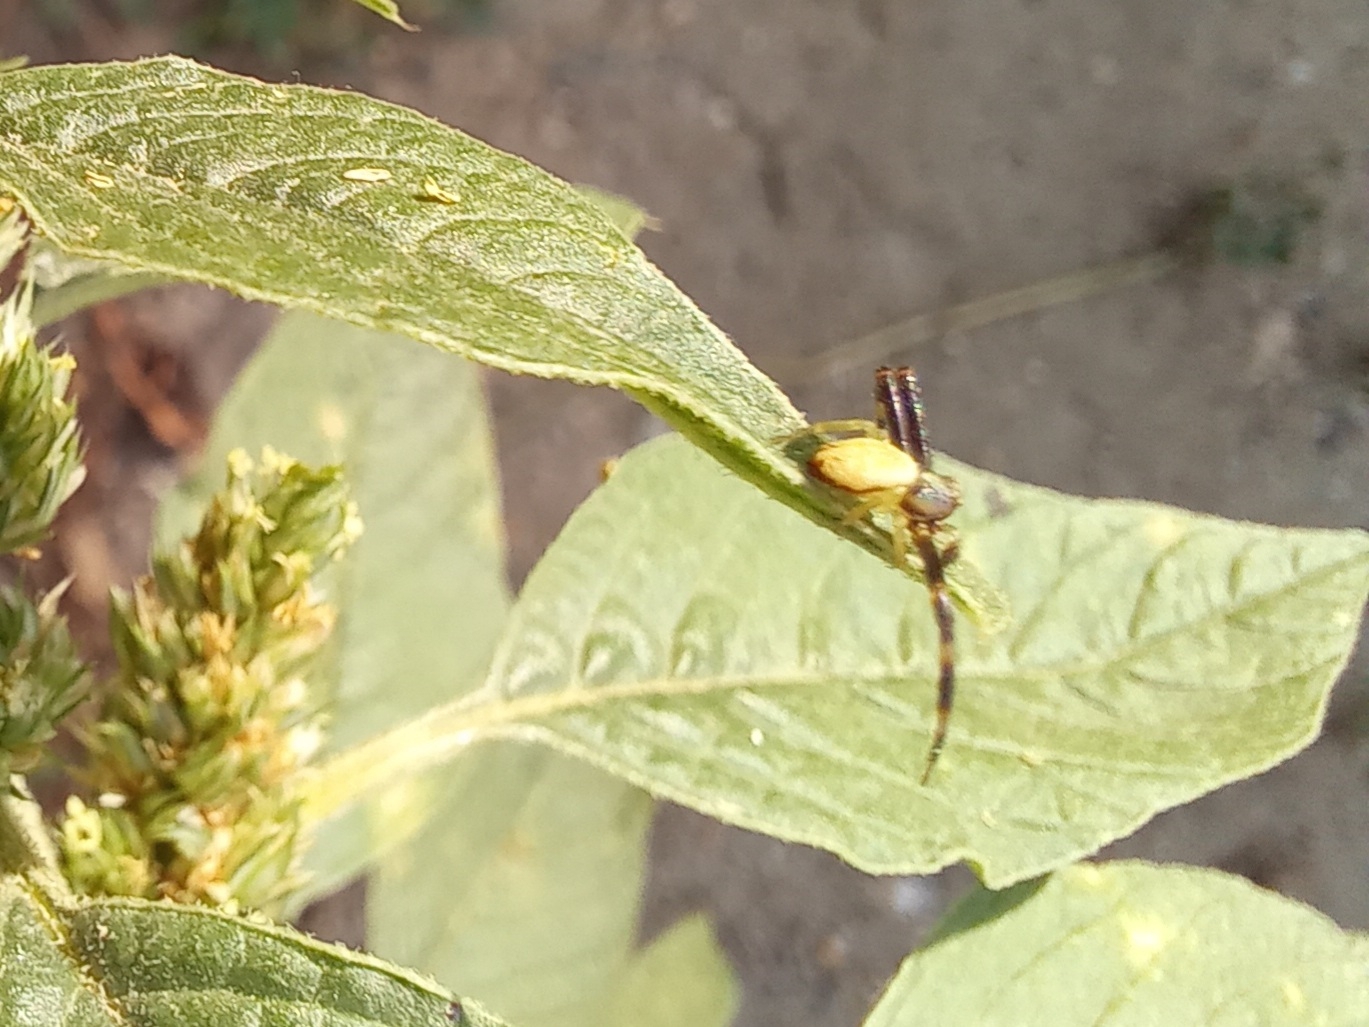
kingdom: Animalia
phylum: Arthropoda
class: Arachnida
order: Araneae
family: Thomisidae
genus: Runcinia
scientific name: Runcinia grammica
